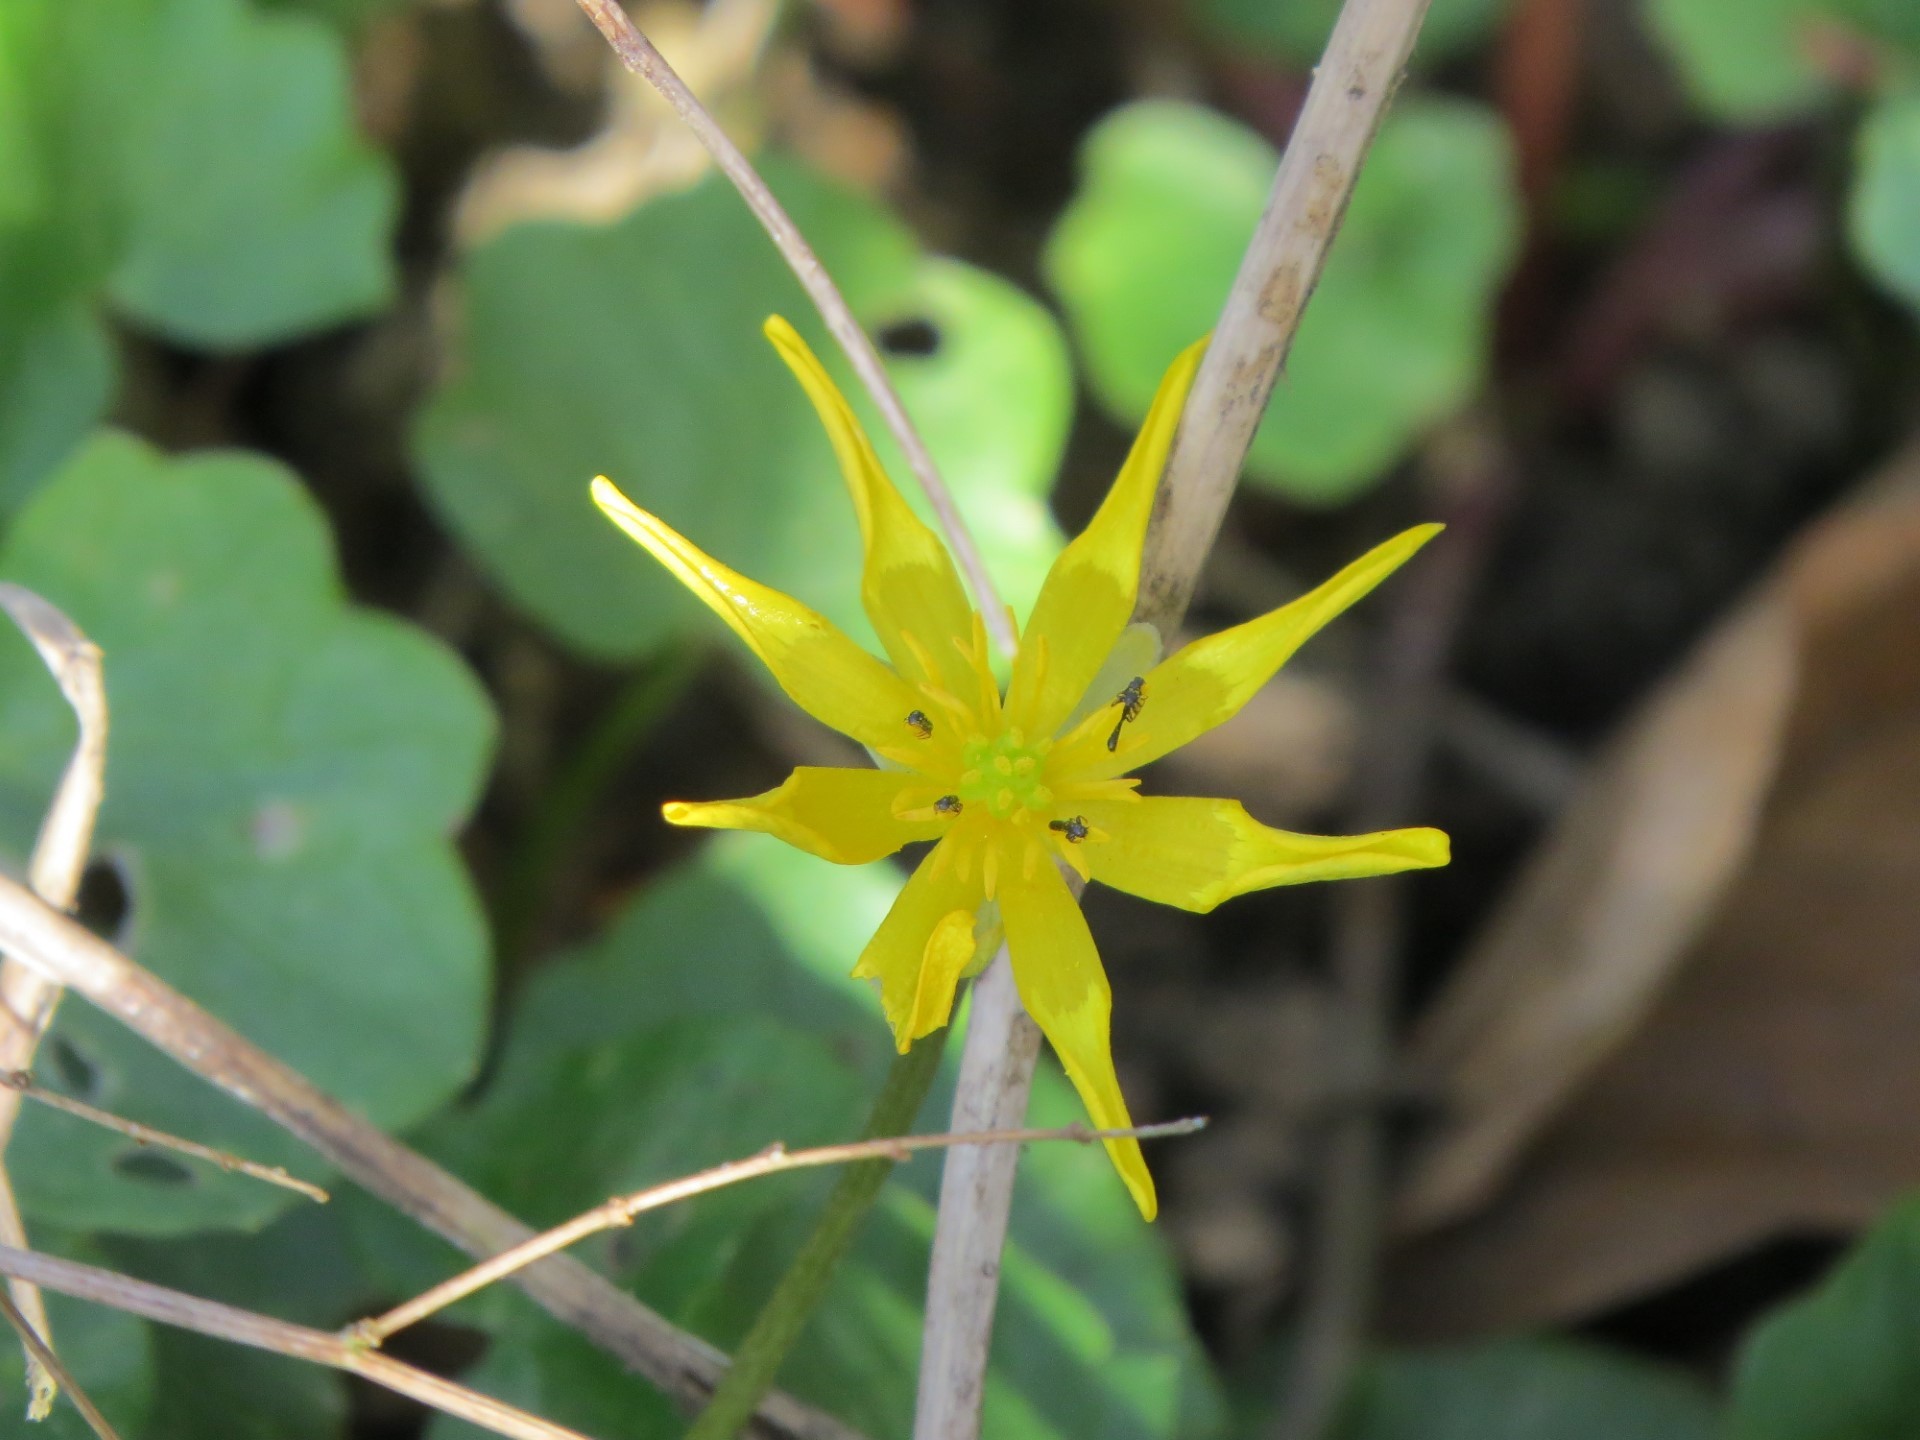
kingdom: Plantae
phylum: Tracheophyta
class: Magnoliopsida
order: Ranunculales
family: Ranunculaceae
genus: Ficaria
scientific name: Ficaria verna
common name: Lesser celandine
